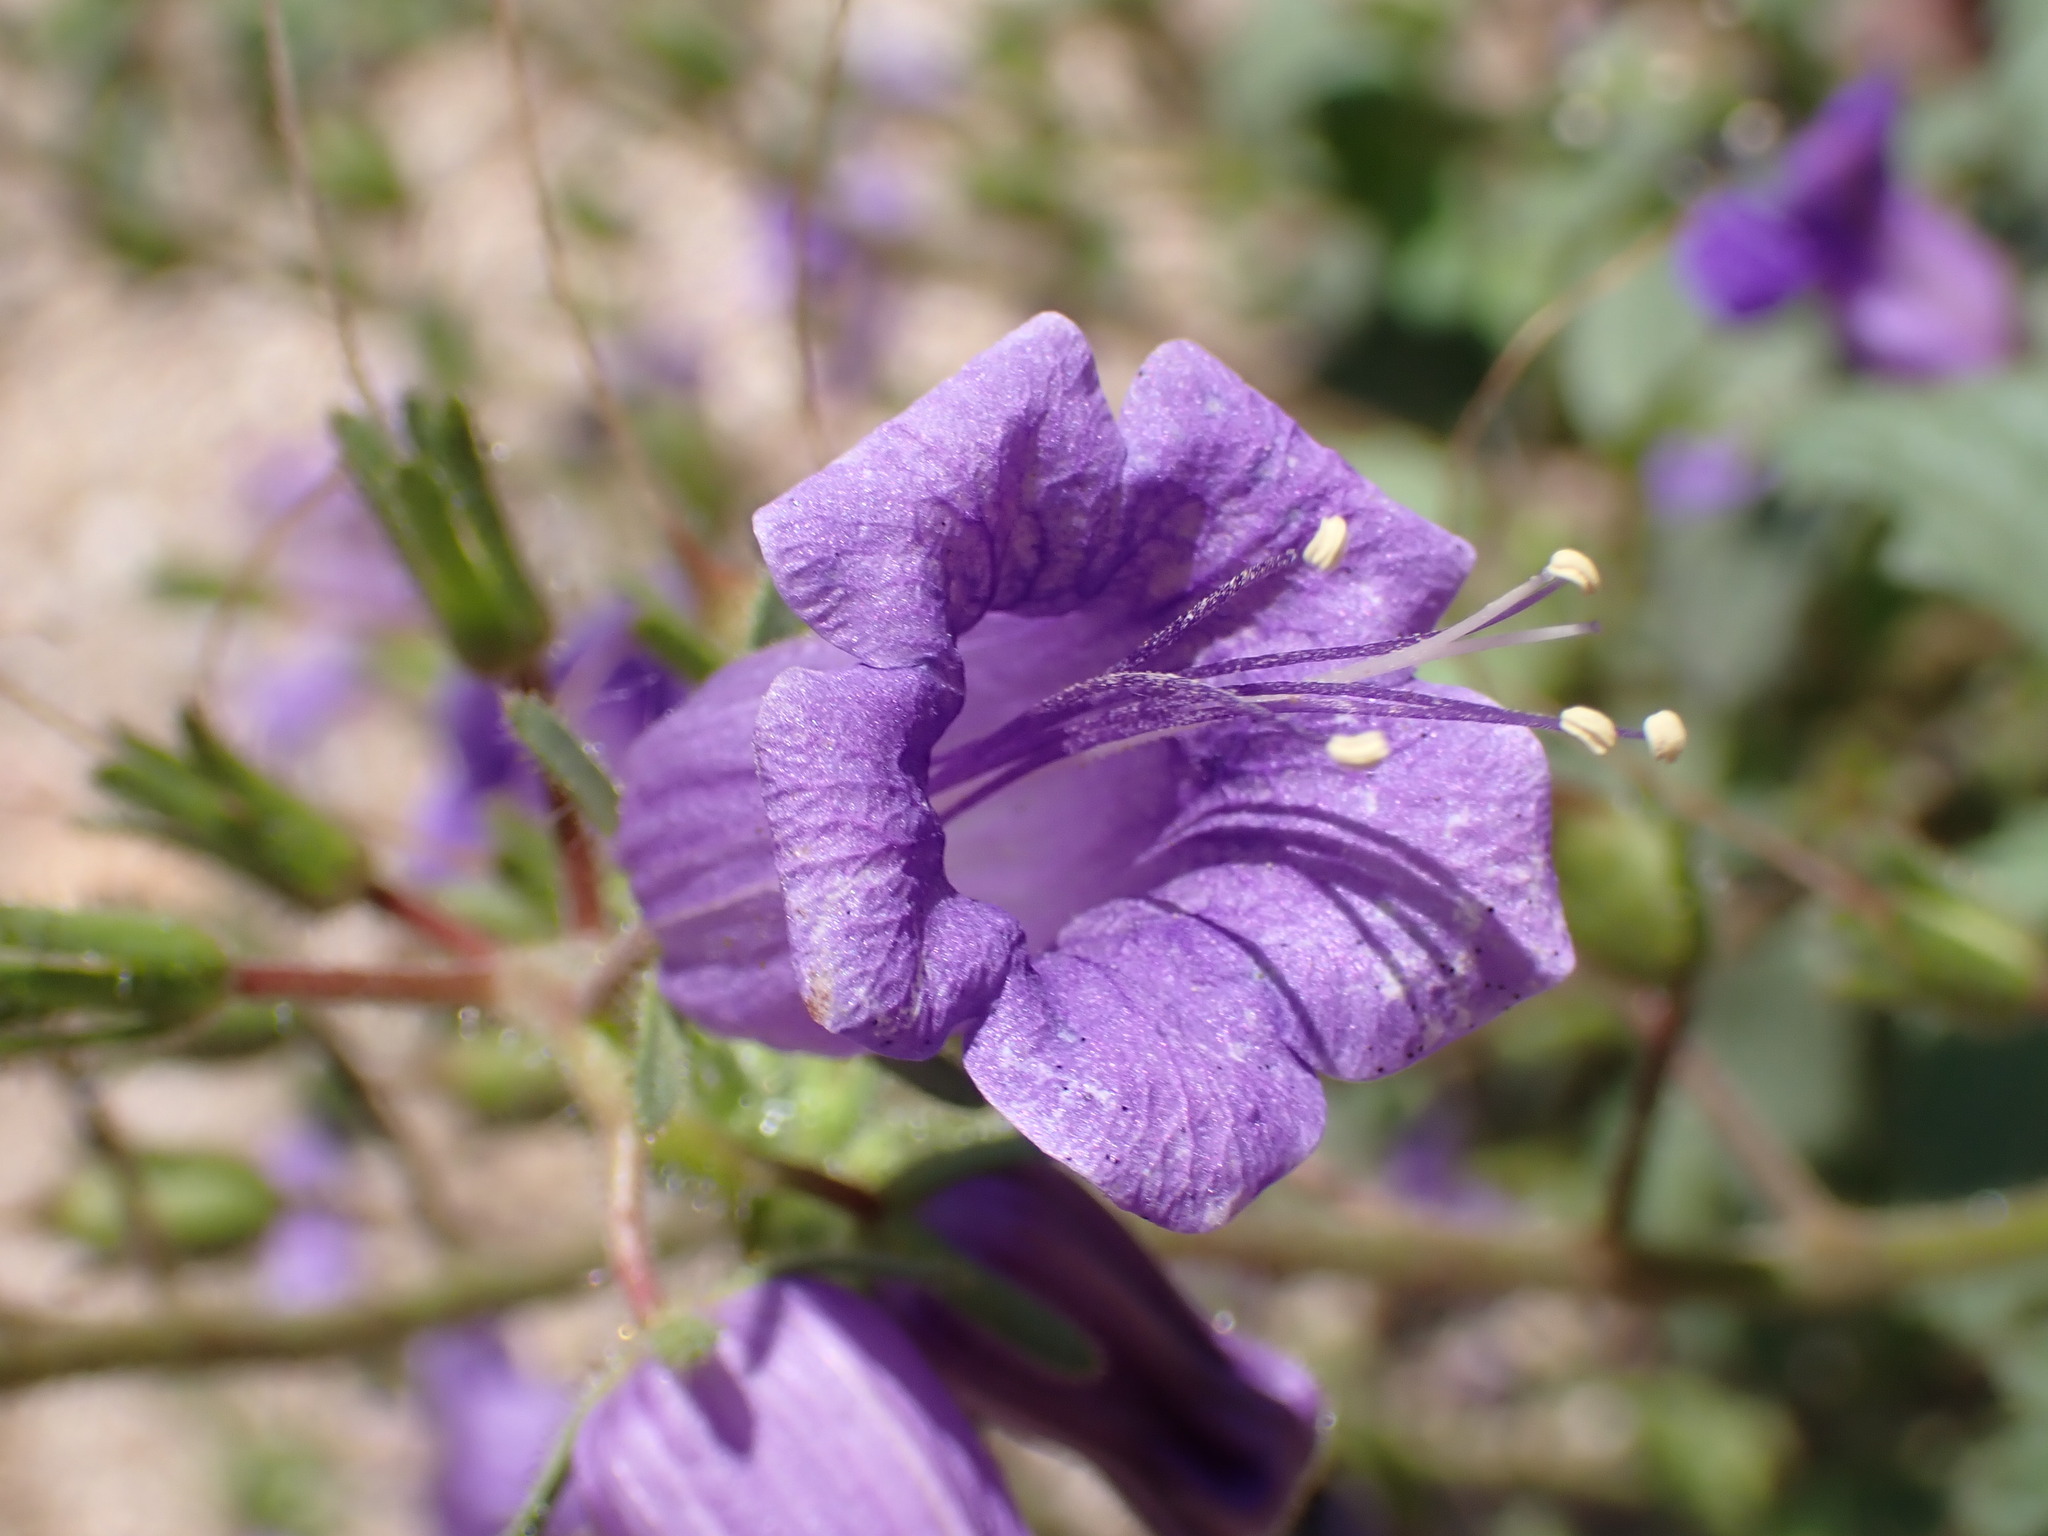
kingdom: Plantae
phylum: Tracheophyta
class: Magnoliopsida
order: Boraginales
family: Hydrophyllaceae
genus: Phacelia
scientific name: Phacelia minor
